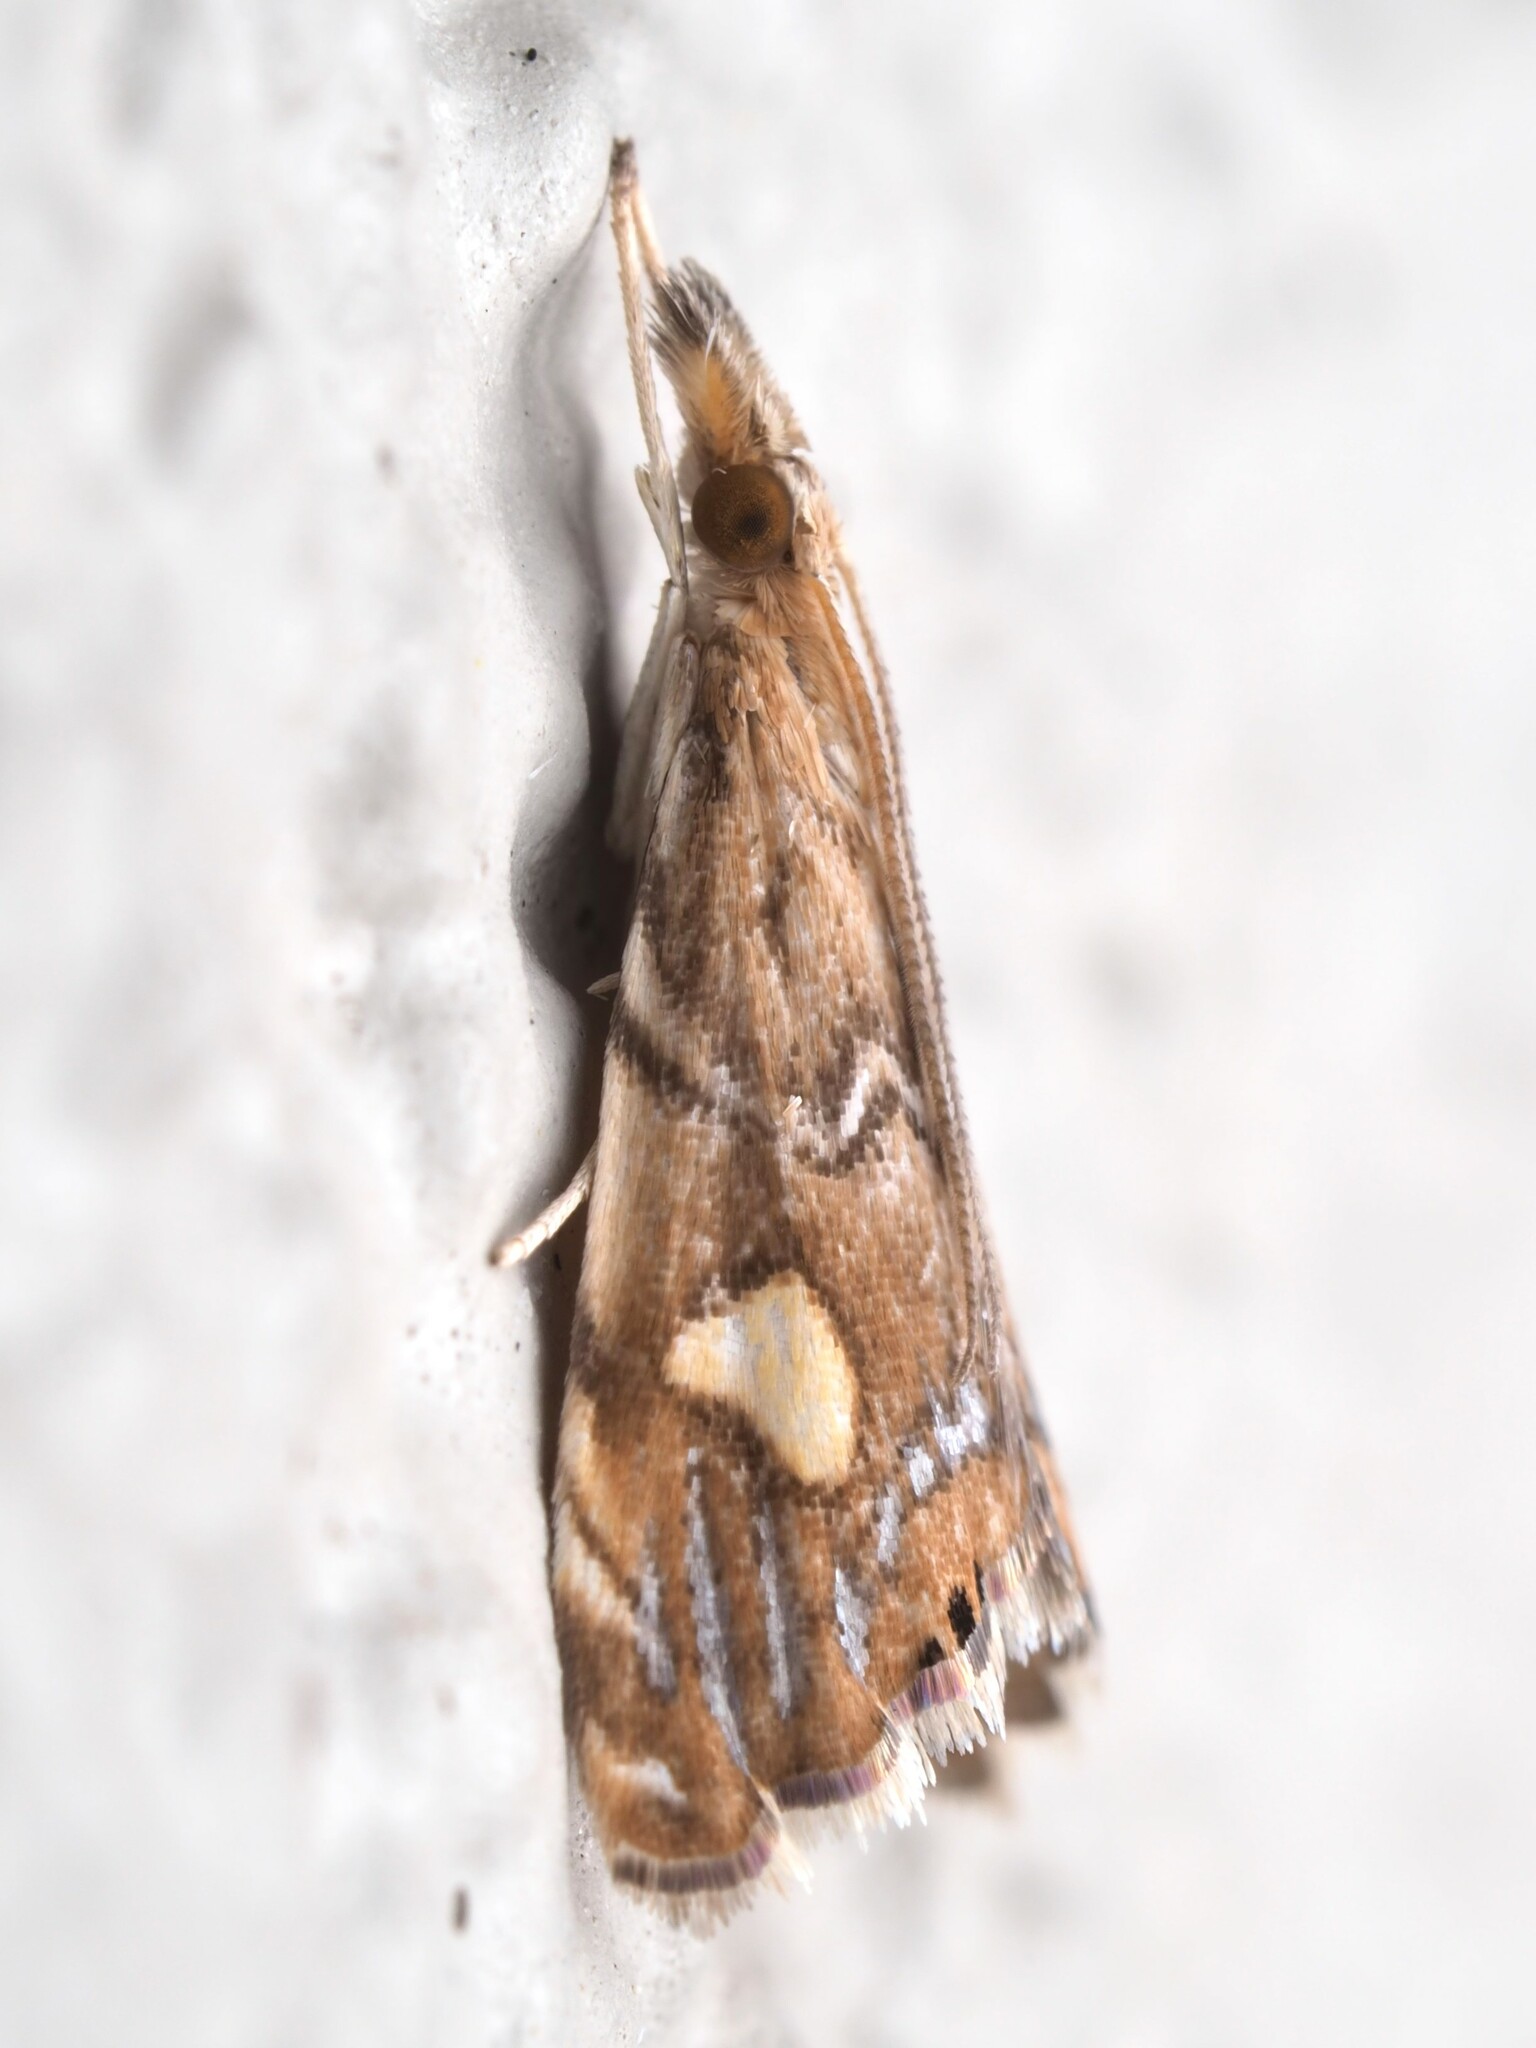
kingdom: Animalia
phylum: Arthropoda
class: Insecta
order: Lepidoptera
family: Crambidae
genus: Glaucocharis
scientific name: Glaucocharis leucoxantha
